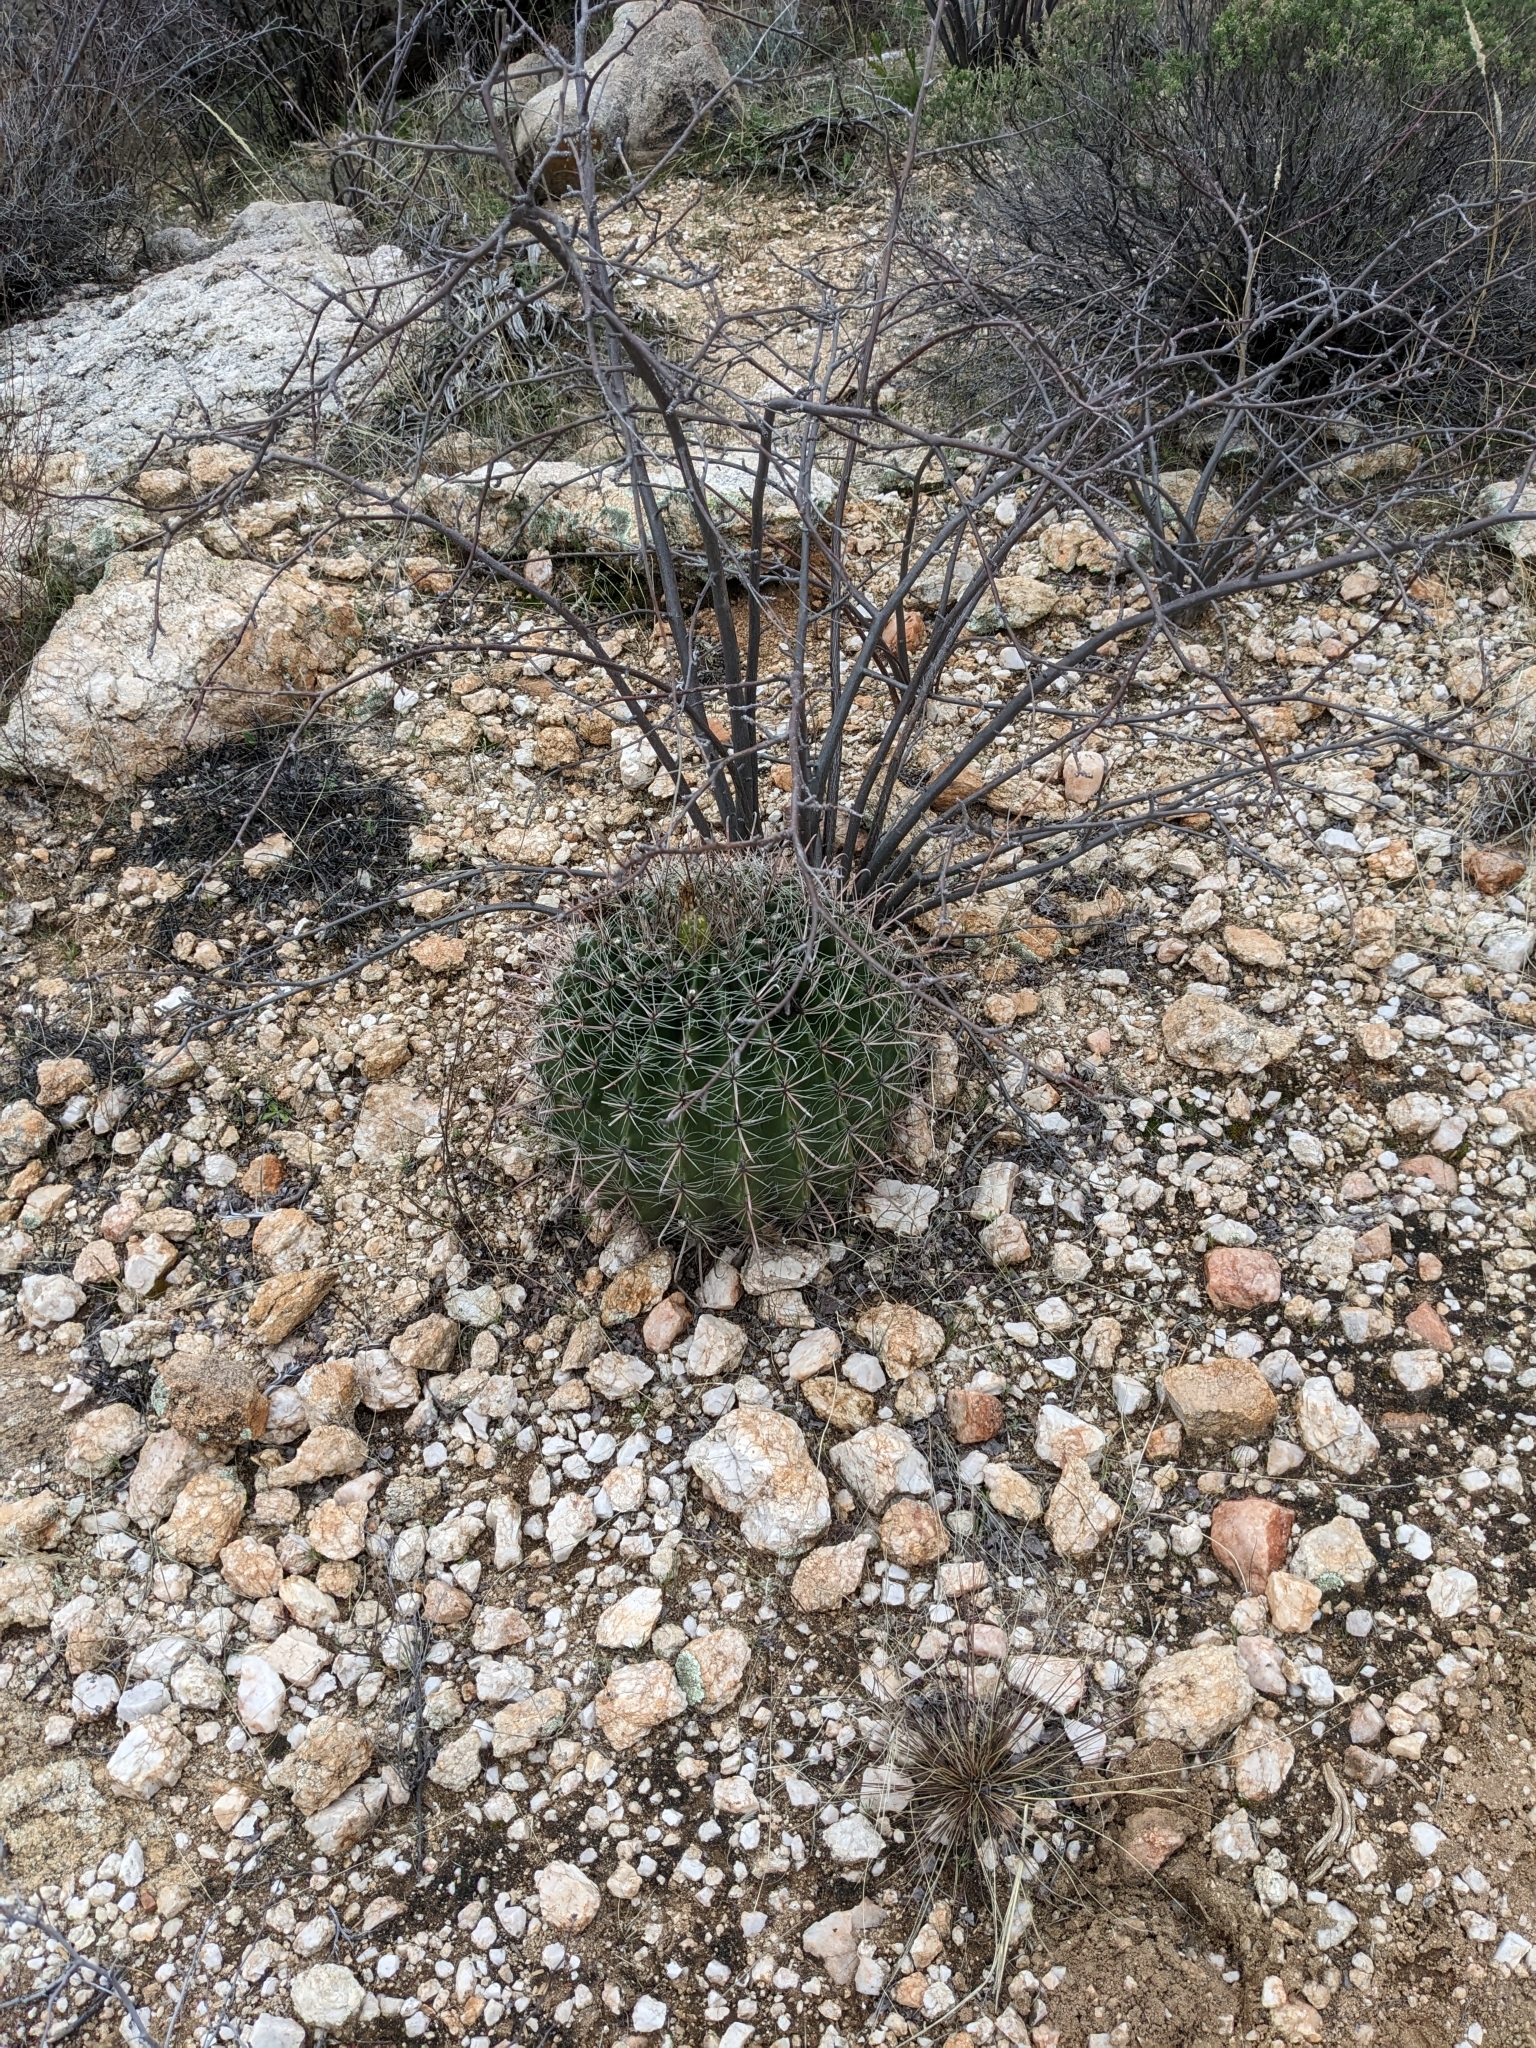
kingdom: Plantae
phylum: Tracheophyta
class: Magnoliopsida
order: Caryophyllales
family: Cactaceae
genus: Ferocactus
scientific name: Ferocactus wislizeni
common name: Candy barrel cactus
